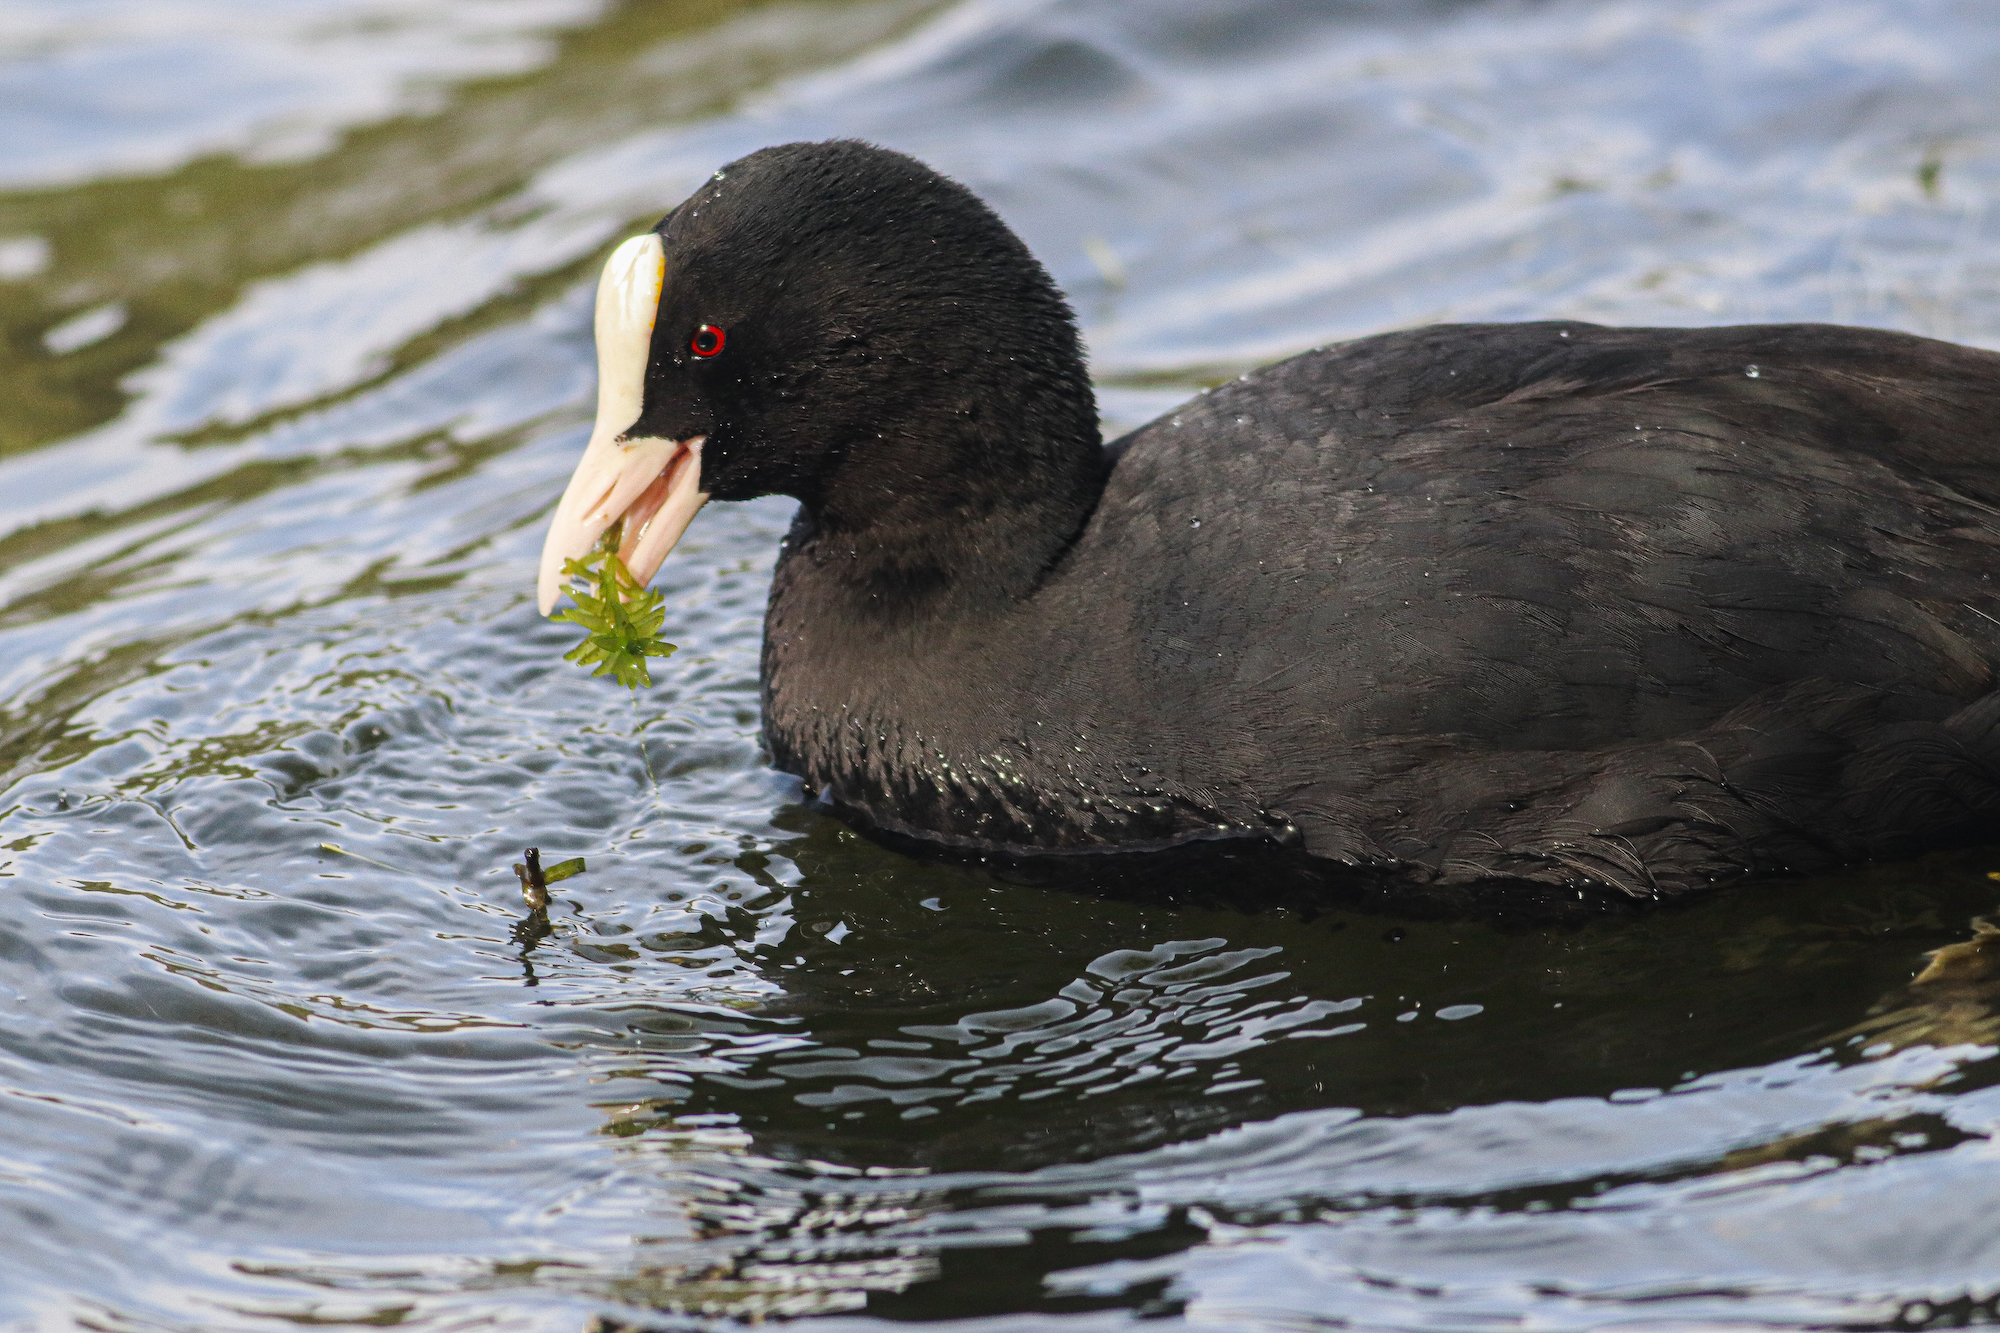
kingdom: Animalia
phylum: Chordata
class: Aves
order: Gruiformes
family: Rallidae
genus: Fulica
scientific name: Fulica atra
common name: Eurasian coot
